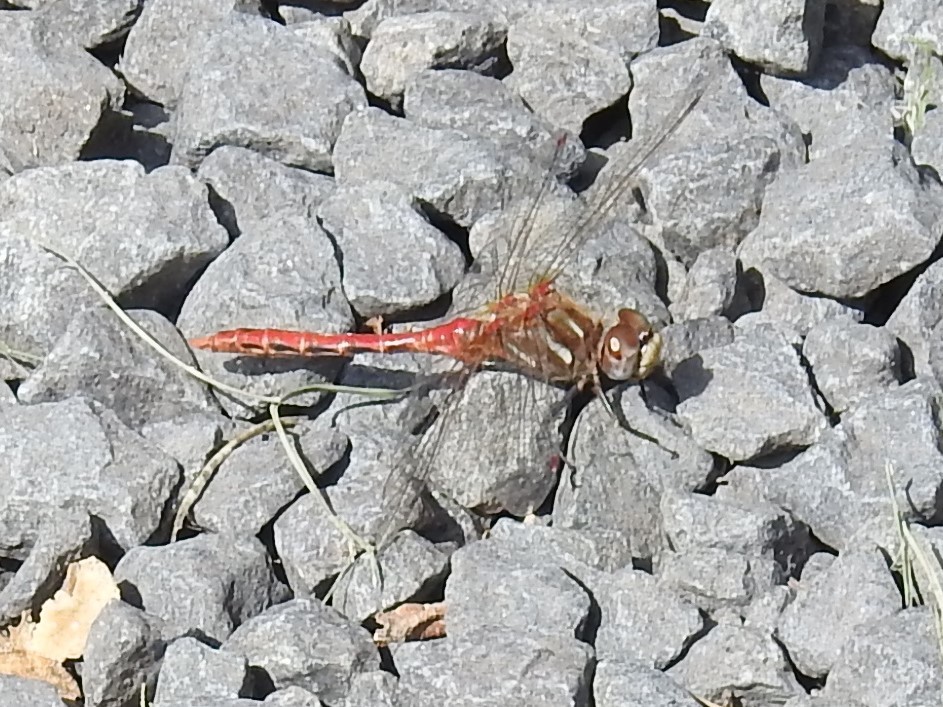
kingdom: Animalia
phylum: Arthropoda
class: Insecta
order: Odonata
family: Libellulidae
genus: Sympetrum
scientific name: Sympetrum pallipes
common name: Striped meadowhawk
